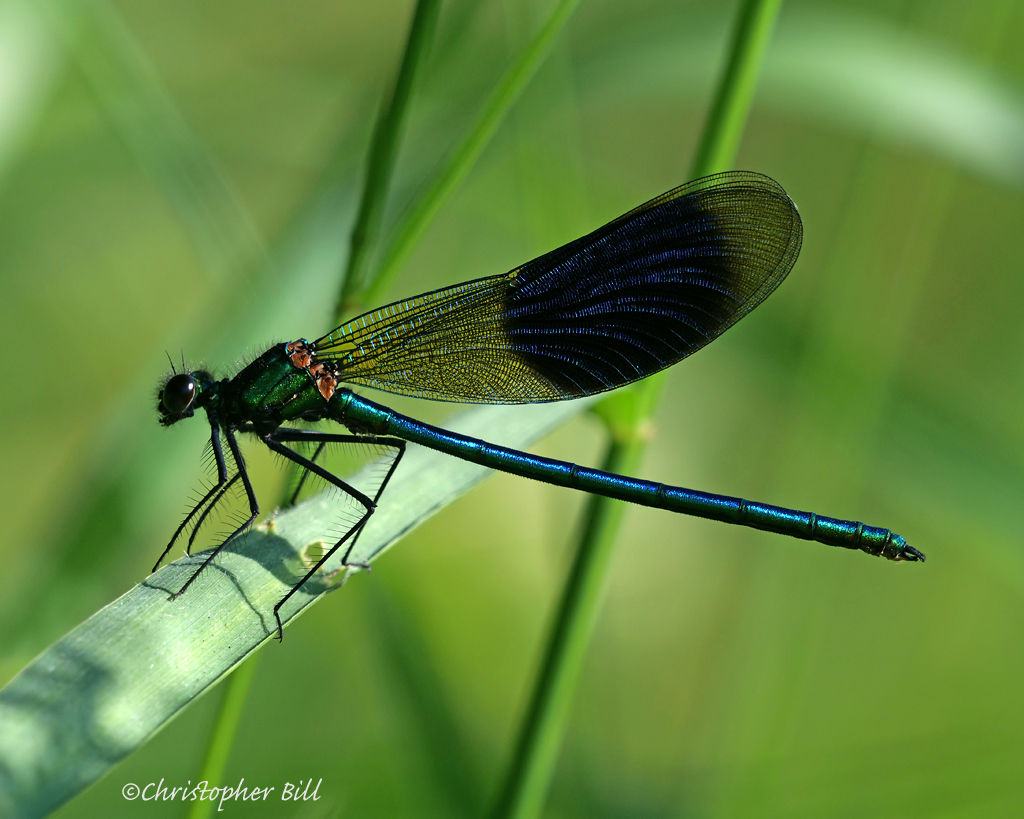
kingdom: Animalia
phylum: Arthropoda
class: Insecta
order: Odonata
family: Calopterygidae
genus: Calopteryx
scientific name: Calopteryx splendens
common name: Banded demoiselle
